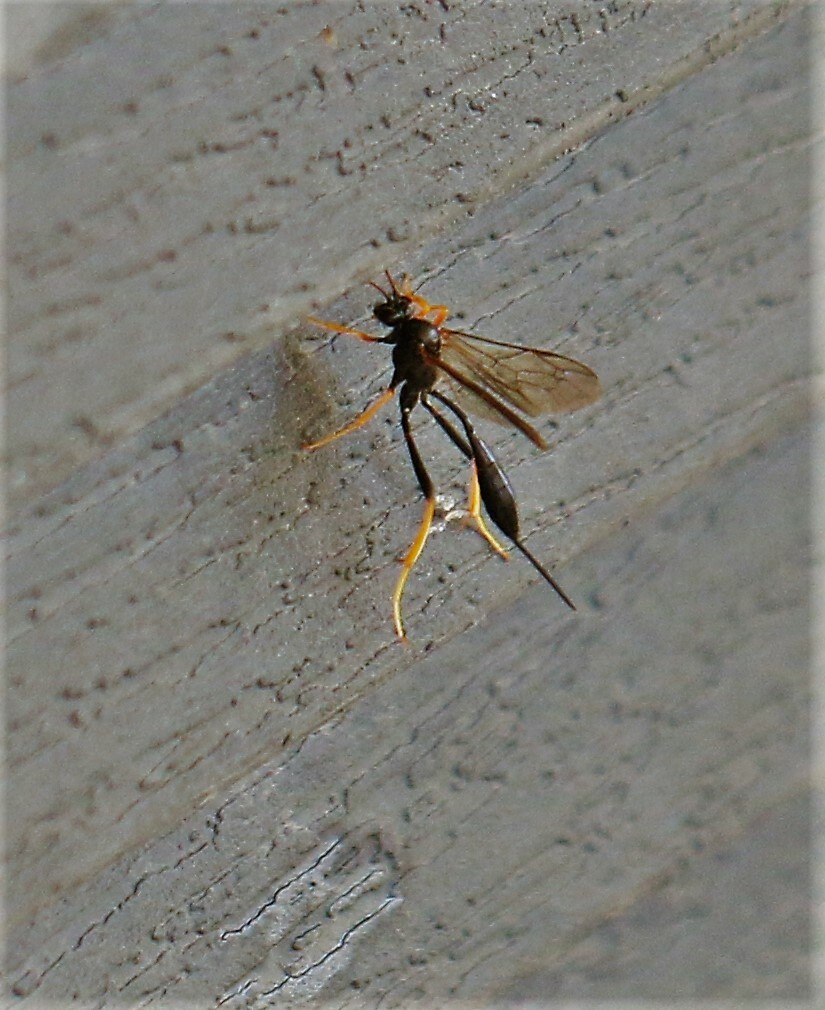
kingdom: Animalia
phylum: Arthropoda
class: Insecta
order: Hymenoptera
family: Ichneumonidae
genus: Acroricnus
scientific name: Acroricnus stylator
